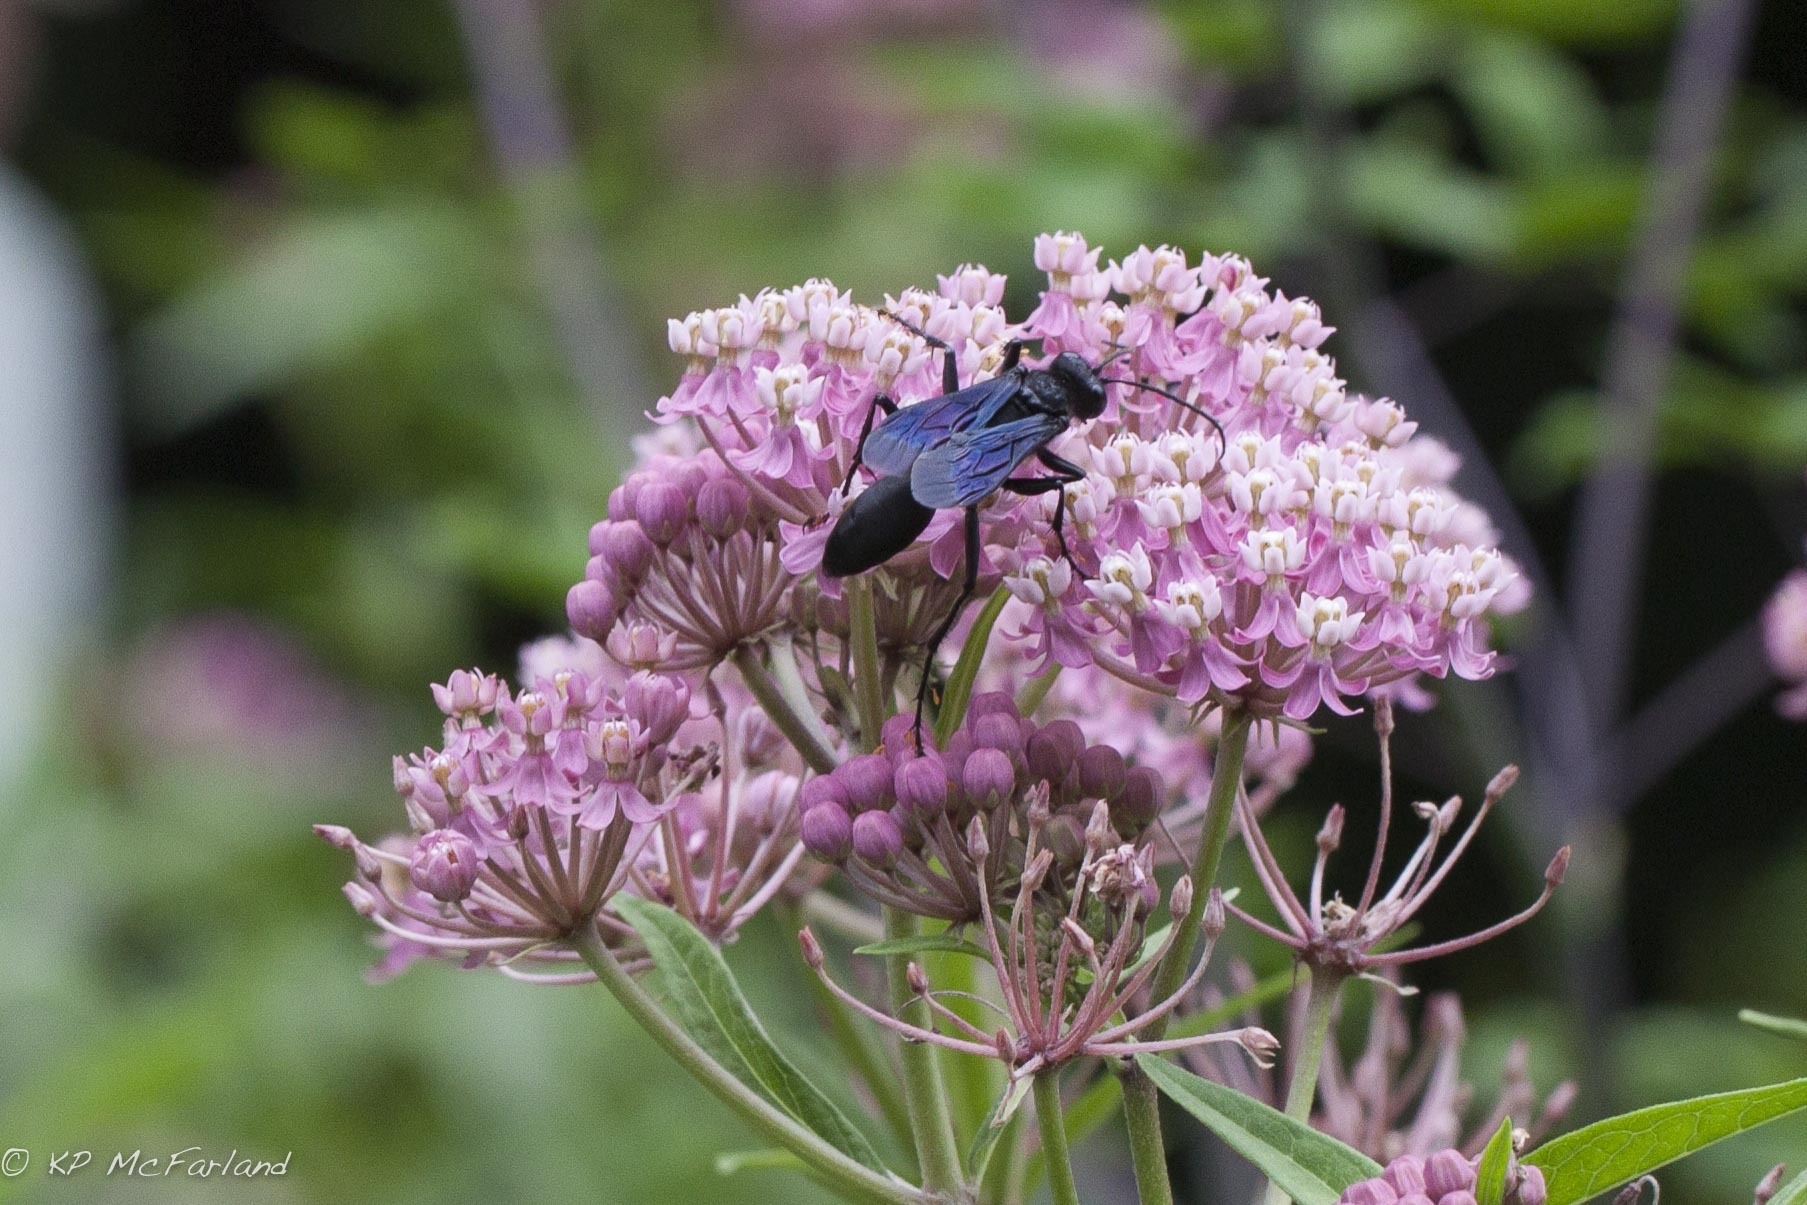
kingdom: Animalia
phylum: Arthropoda
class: Insecta
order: Hymenoptera
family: Sphecidae
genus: Sphex
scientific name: Sphex pensylvanicus
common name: Great black digger wasp
